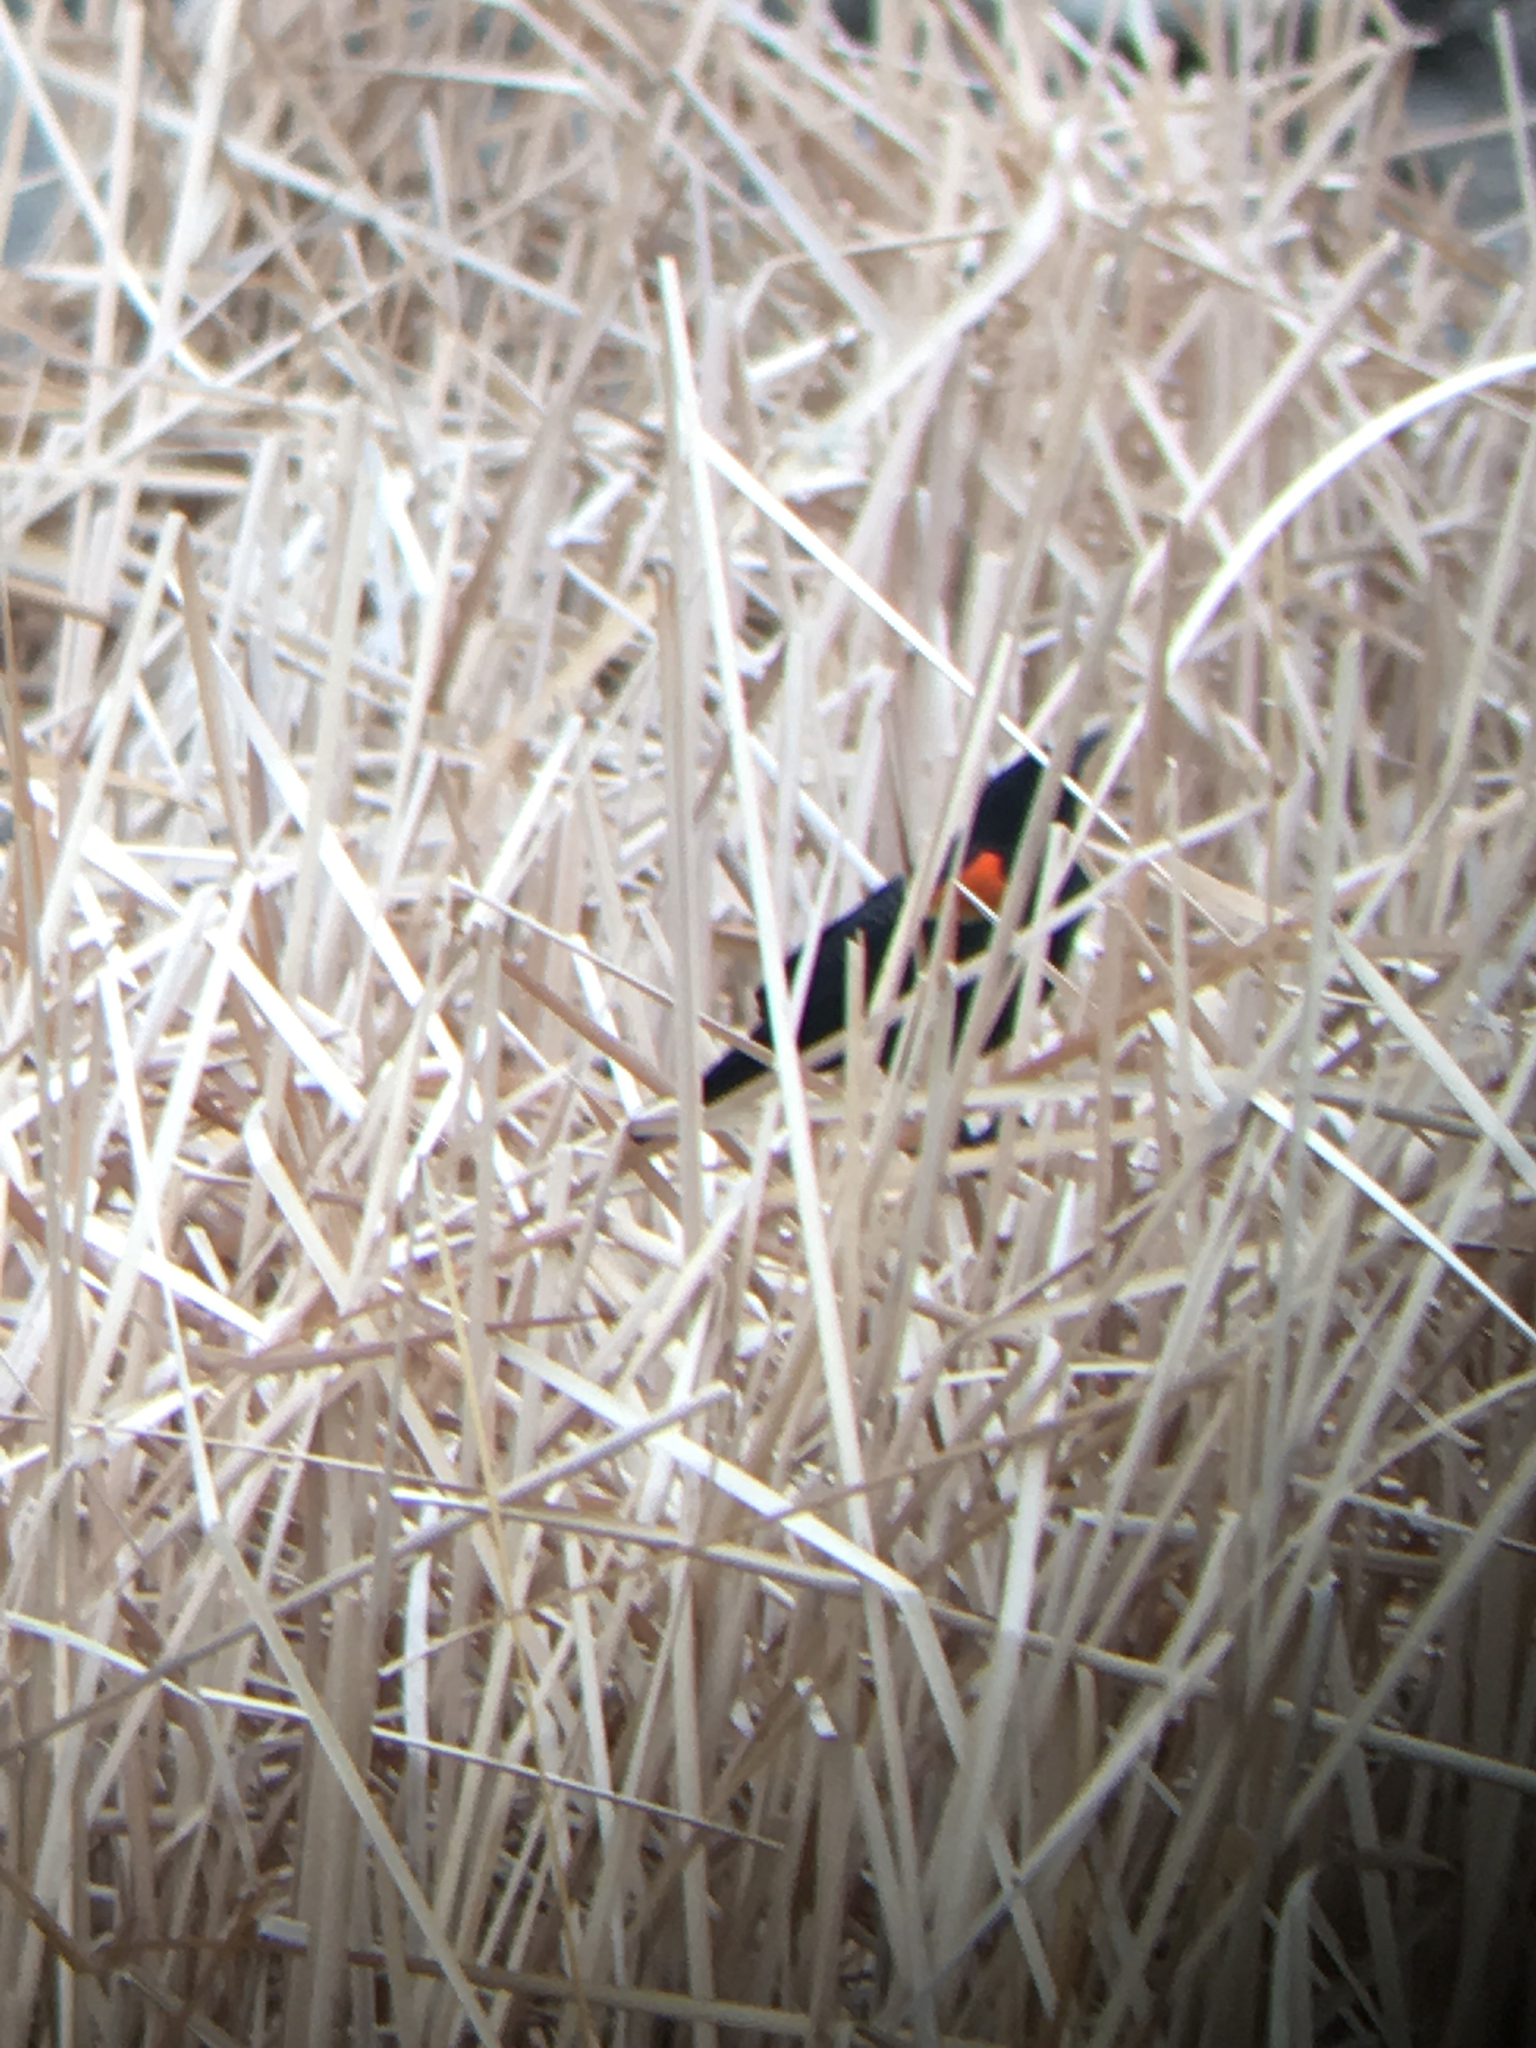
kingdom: Animalia
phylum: Chordata
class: Aves
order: Passeriformes
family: Icteridae
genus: Agelaius
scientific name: Agelaius phoeniceus
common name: Red-winged blackbird
